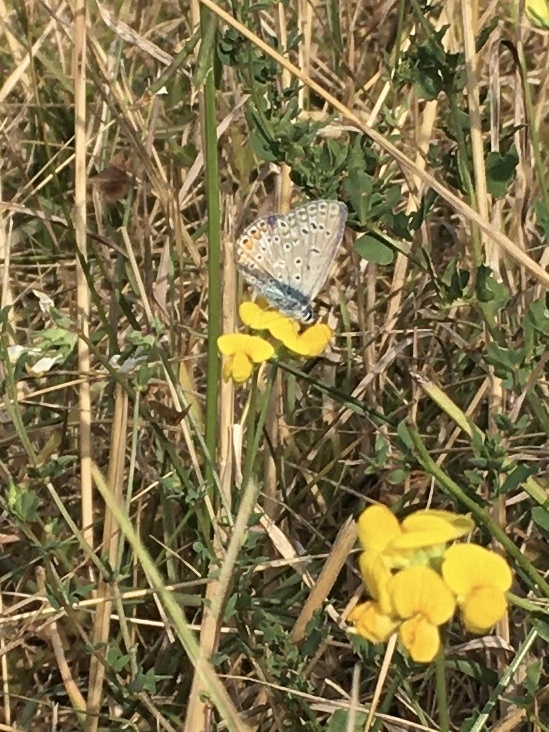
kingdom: Animalia
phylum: Arthropoda
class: Insecta
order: Lepidoptera
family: Lycaenidae
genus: Polyommatus
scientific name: Polyommatus icarus
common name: Common blue
